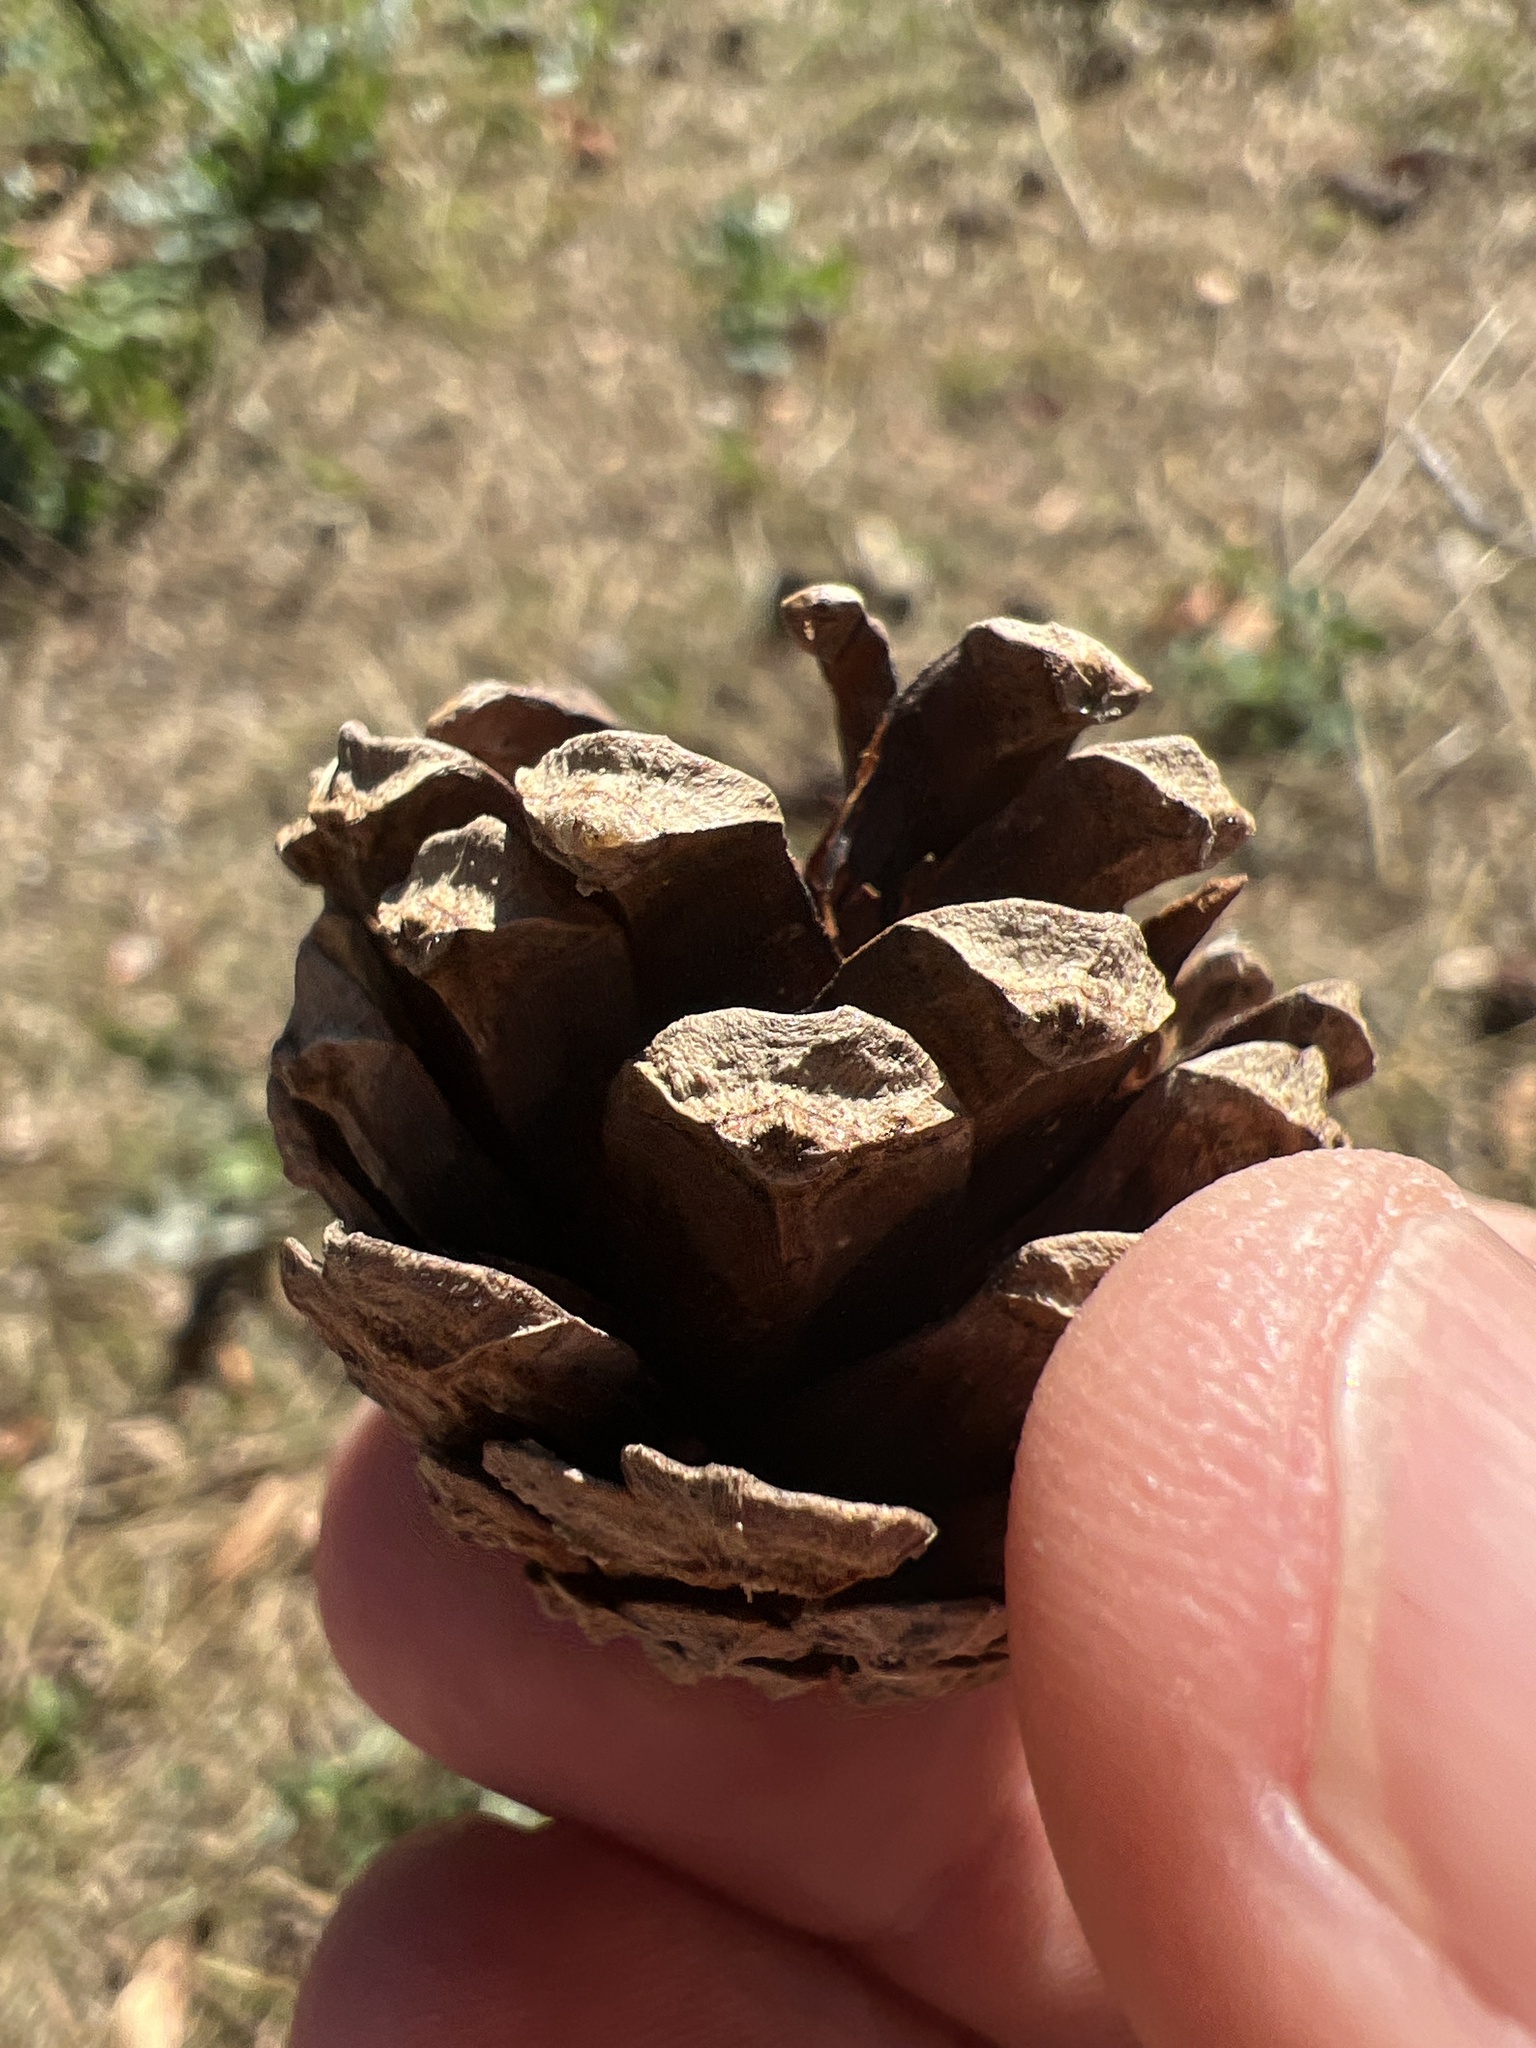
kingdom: Plantae
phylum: Tracheophyta
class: Pinopsida
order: Pinales
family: Pinaceae
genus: Pinus
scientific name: Pinus sylvestris
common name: Scots pine
